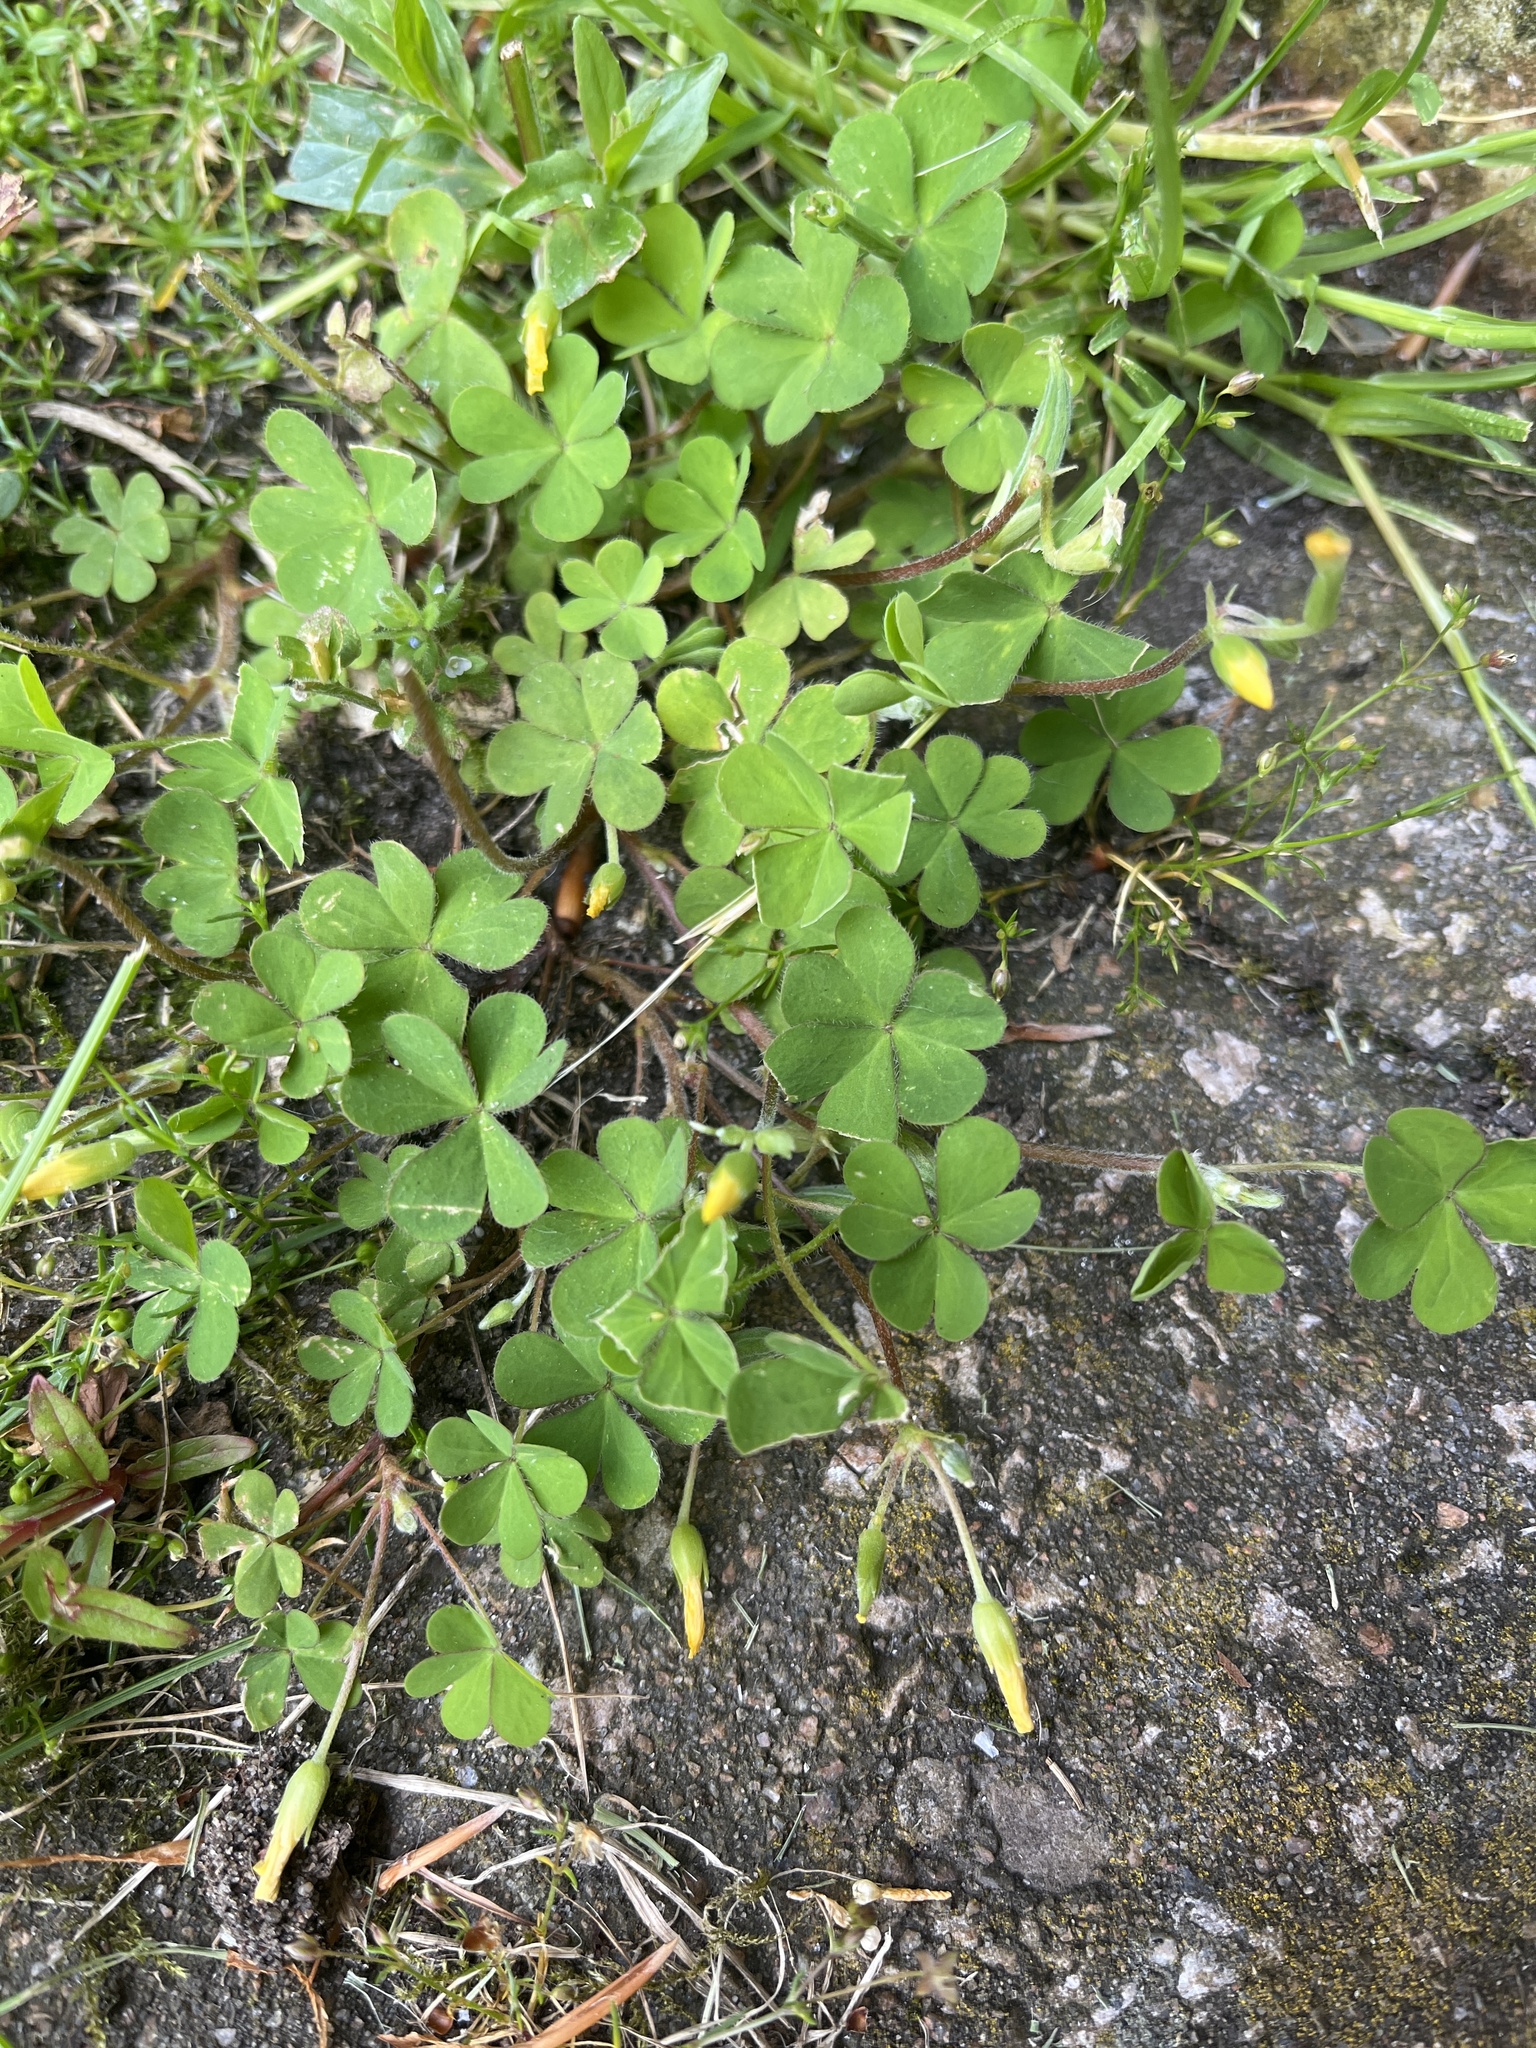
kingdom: Plantae
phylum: Tracheophyta
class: Magnoliopsida
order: Oxalidales
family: Oxalidaceae
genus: Oxalis
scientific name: Oxalis corniculata
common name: Procumbent yellow-sorrel
